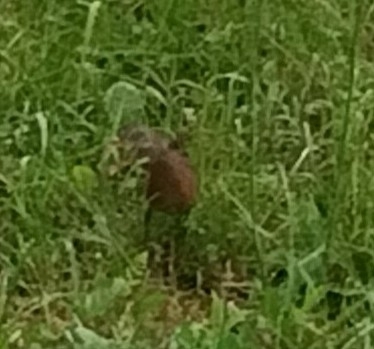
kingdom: Animalia
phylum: Chordata
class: Aves
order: Gruiformes
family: Rallidae
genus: Rallus
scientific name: Rallus limicola
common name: Virginia rail
